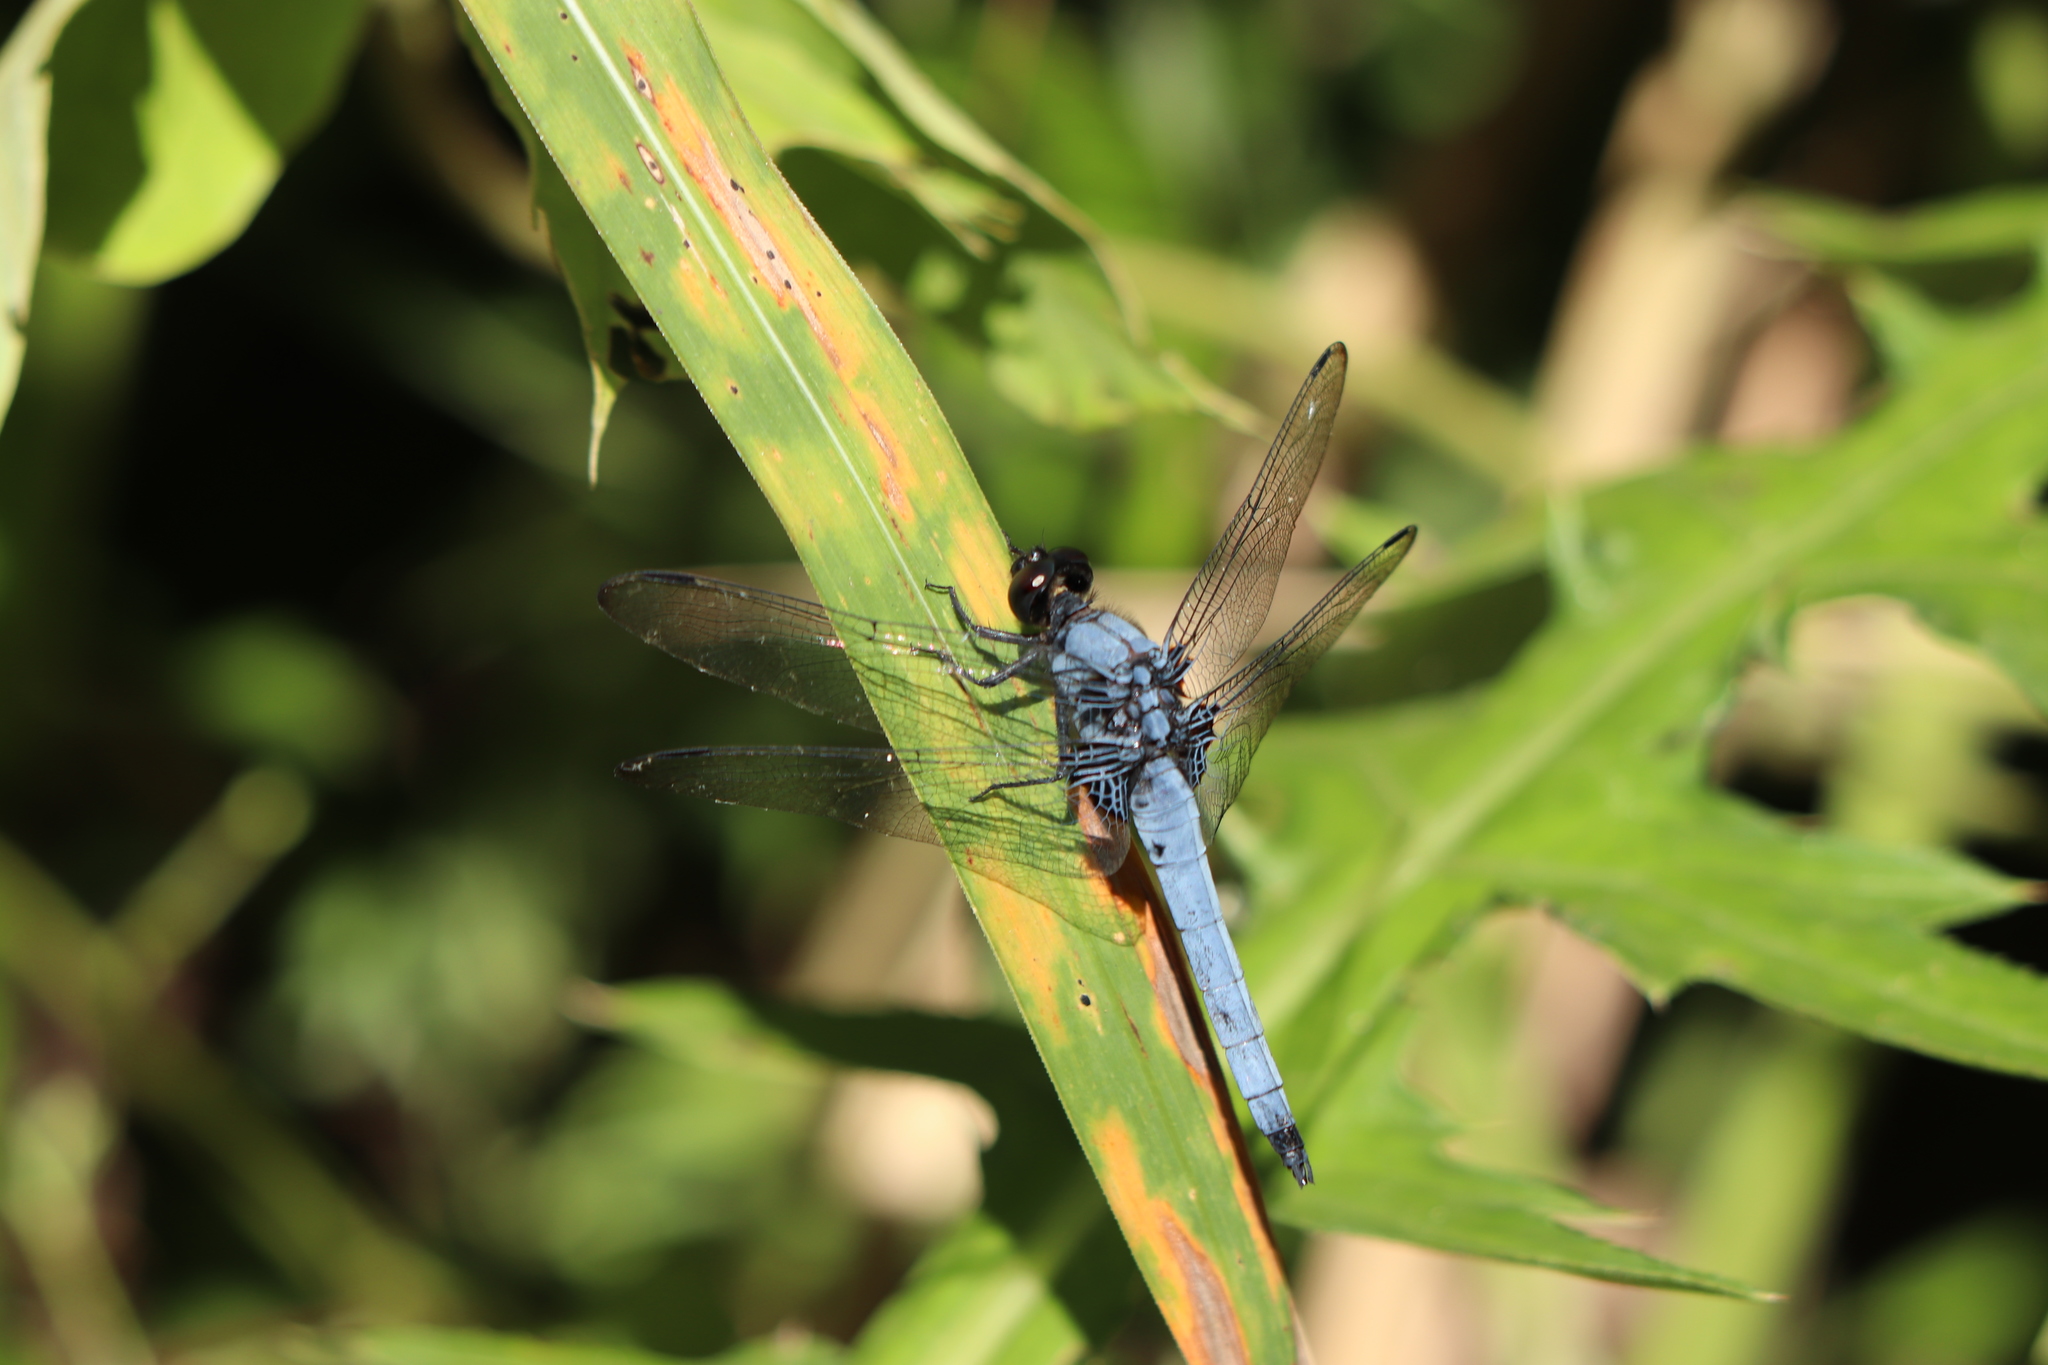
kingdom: Animalia
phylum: Arthropoda
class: Insecta
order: Odonata
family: Libellulidae
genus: Orthetrum
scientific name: Orthetrum melania
